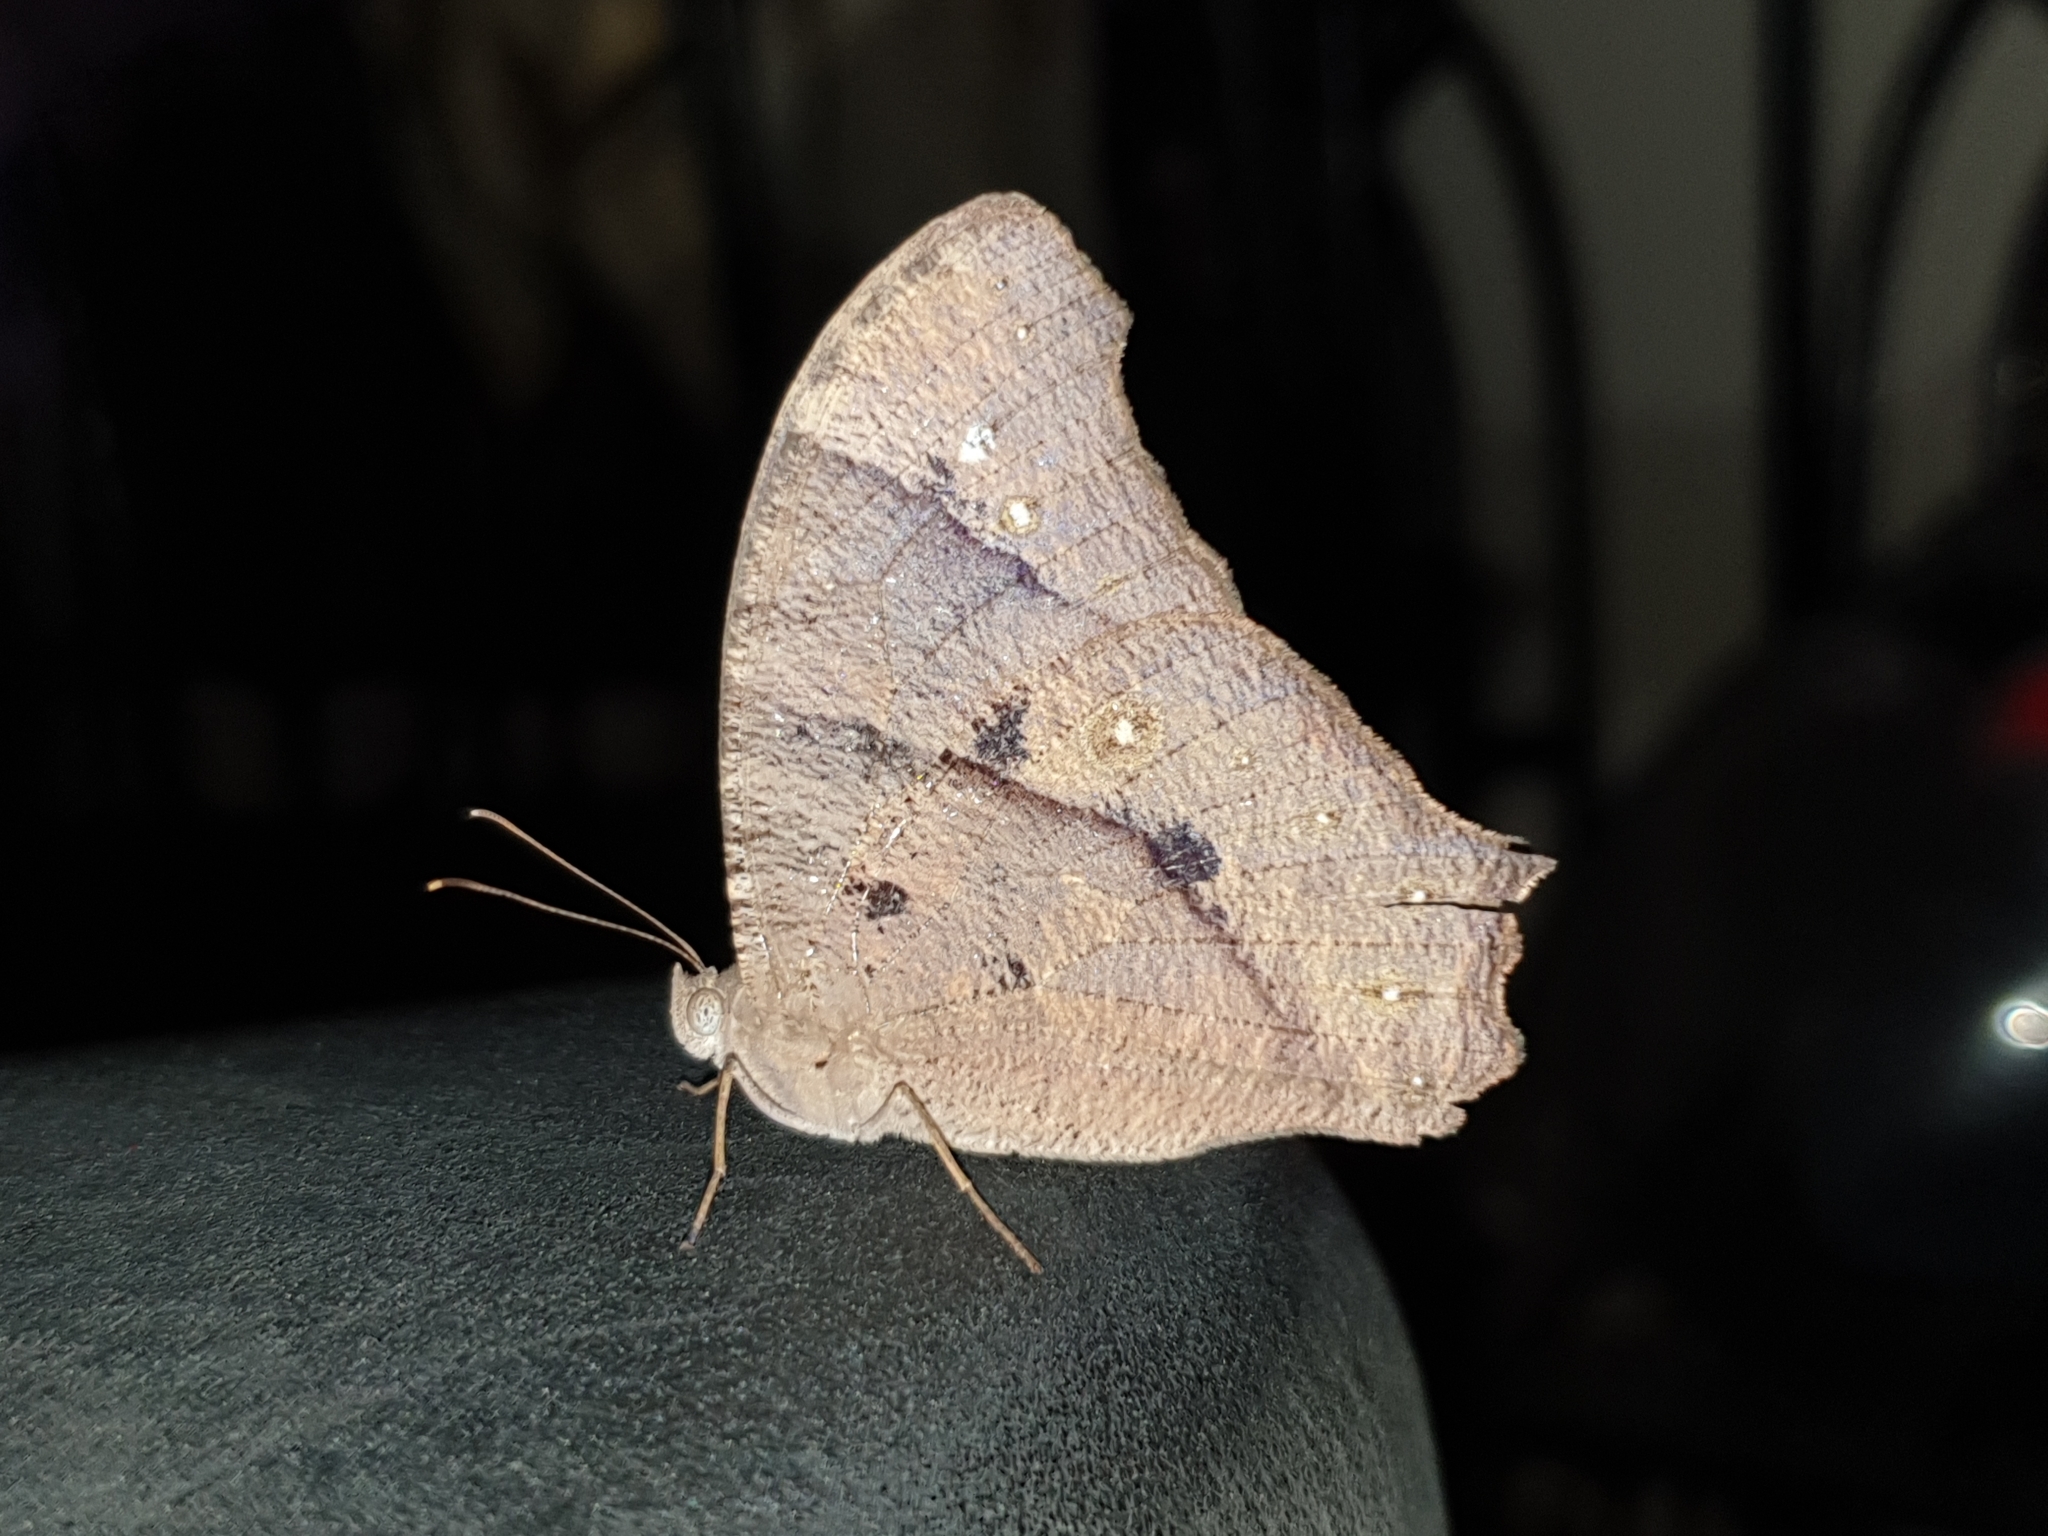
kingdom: Animalia
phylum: Arthropoda
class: Insecta
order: Lepidoptera
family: Nymphalidae
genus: Melanitis
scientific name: Melanitis leda
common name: Twilight brown
